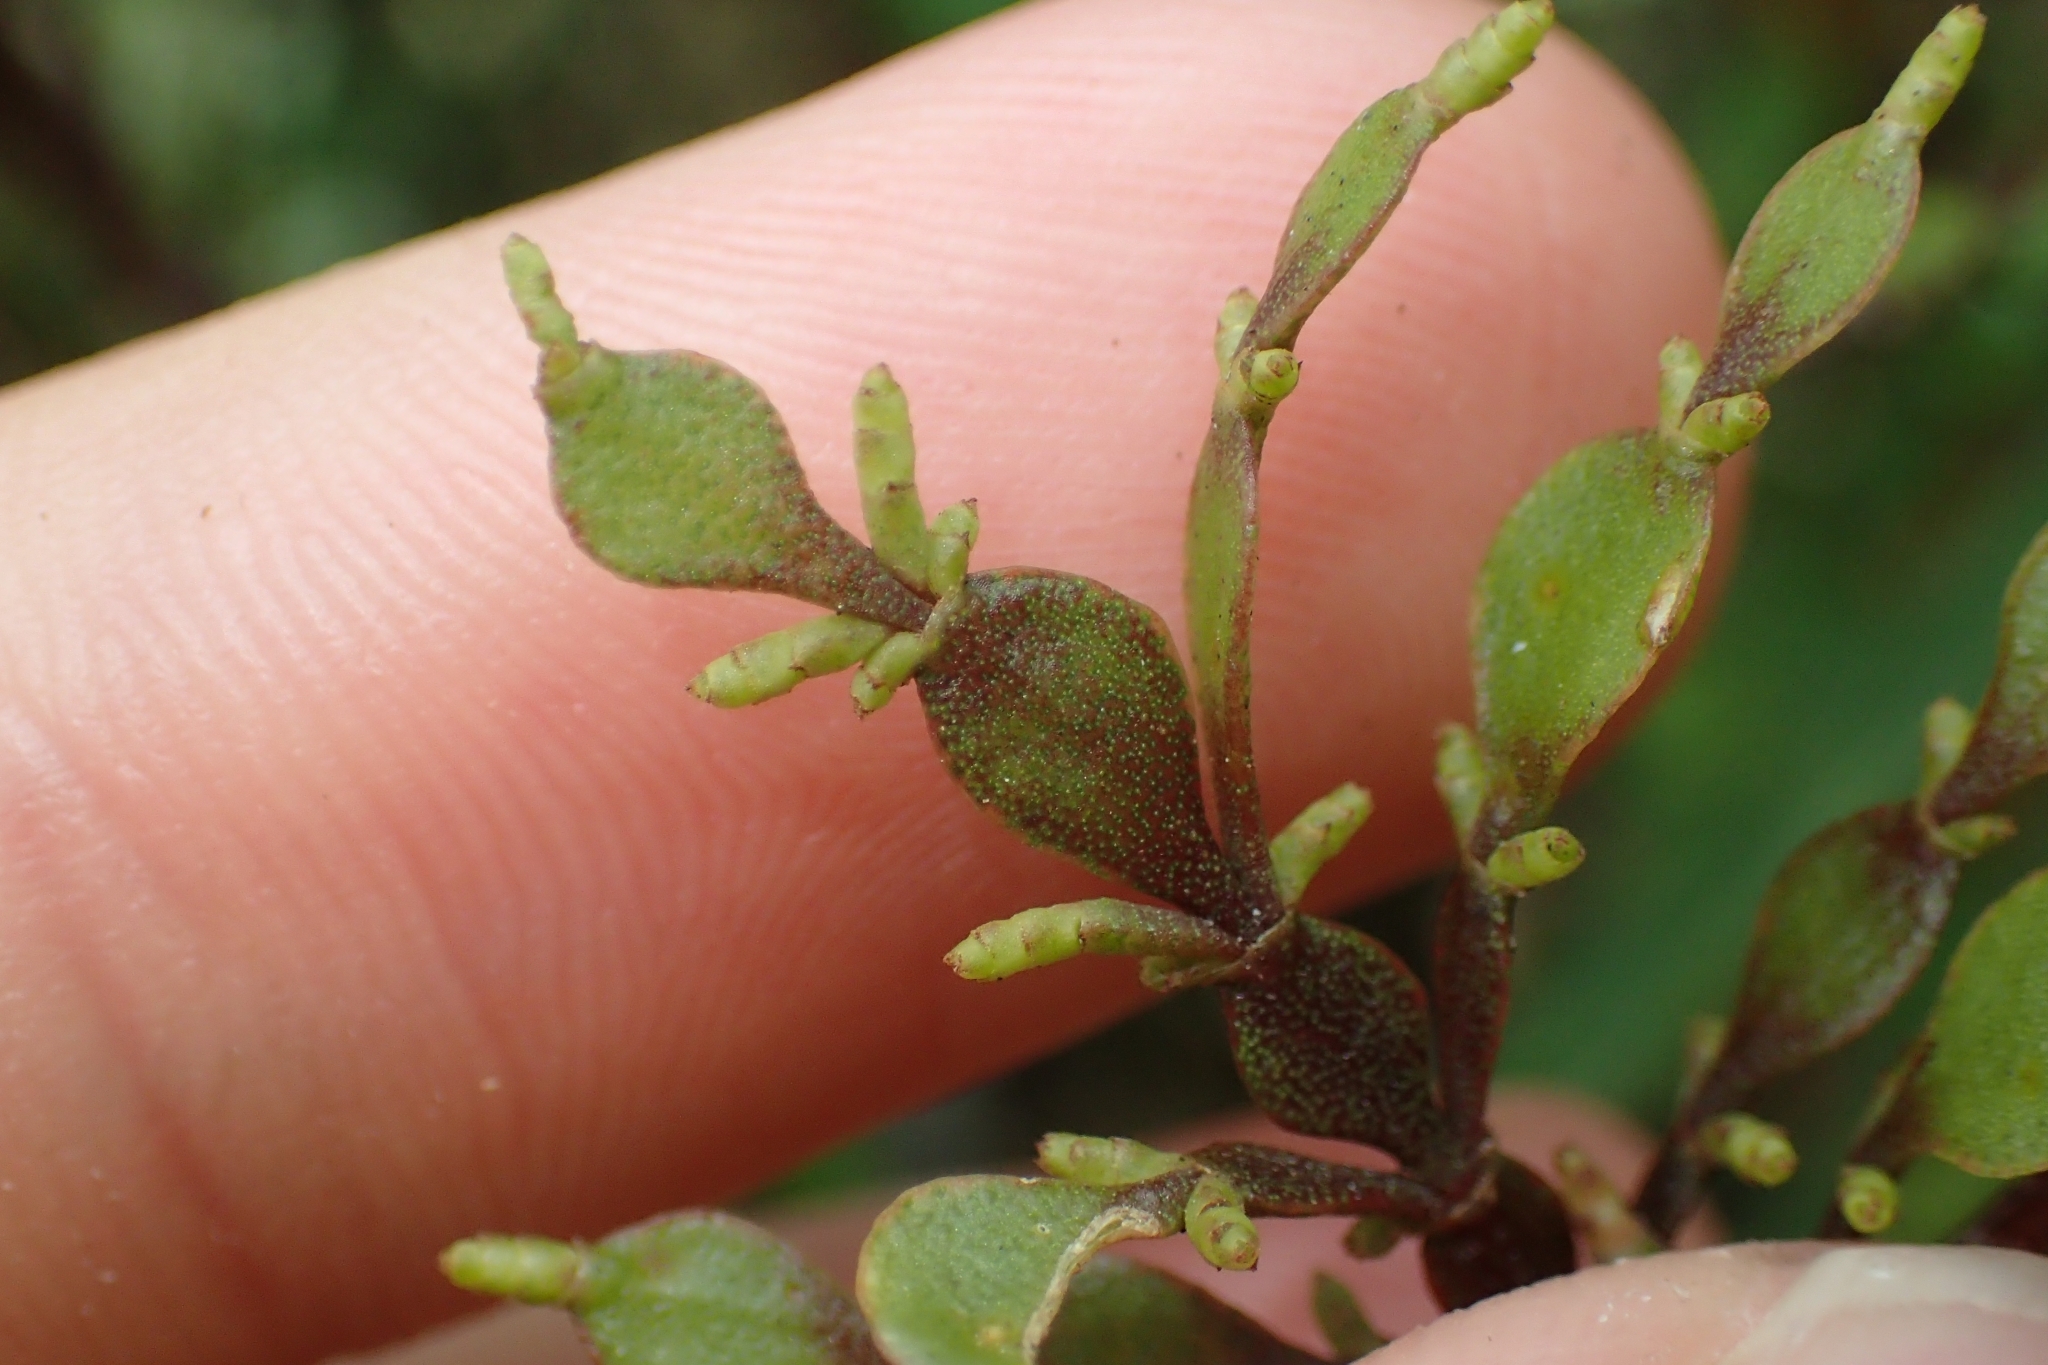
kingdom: Plantae
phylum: Tracheophyta
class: Magnoliopsida
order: Santalales
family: Viscaceae
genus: Korthalsella
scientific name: Korthalsella lindsayi
